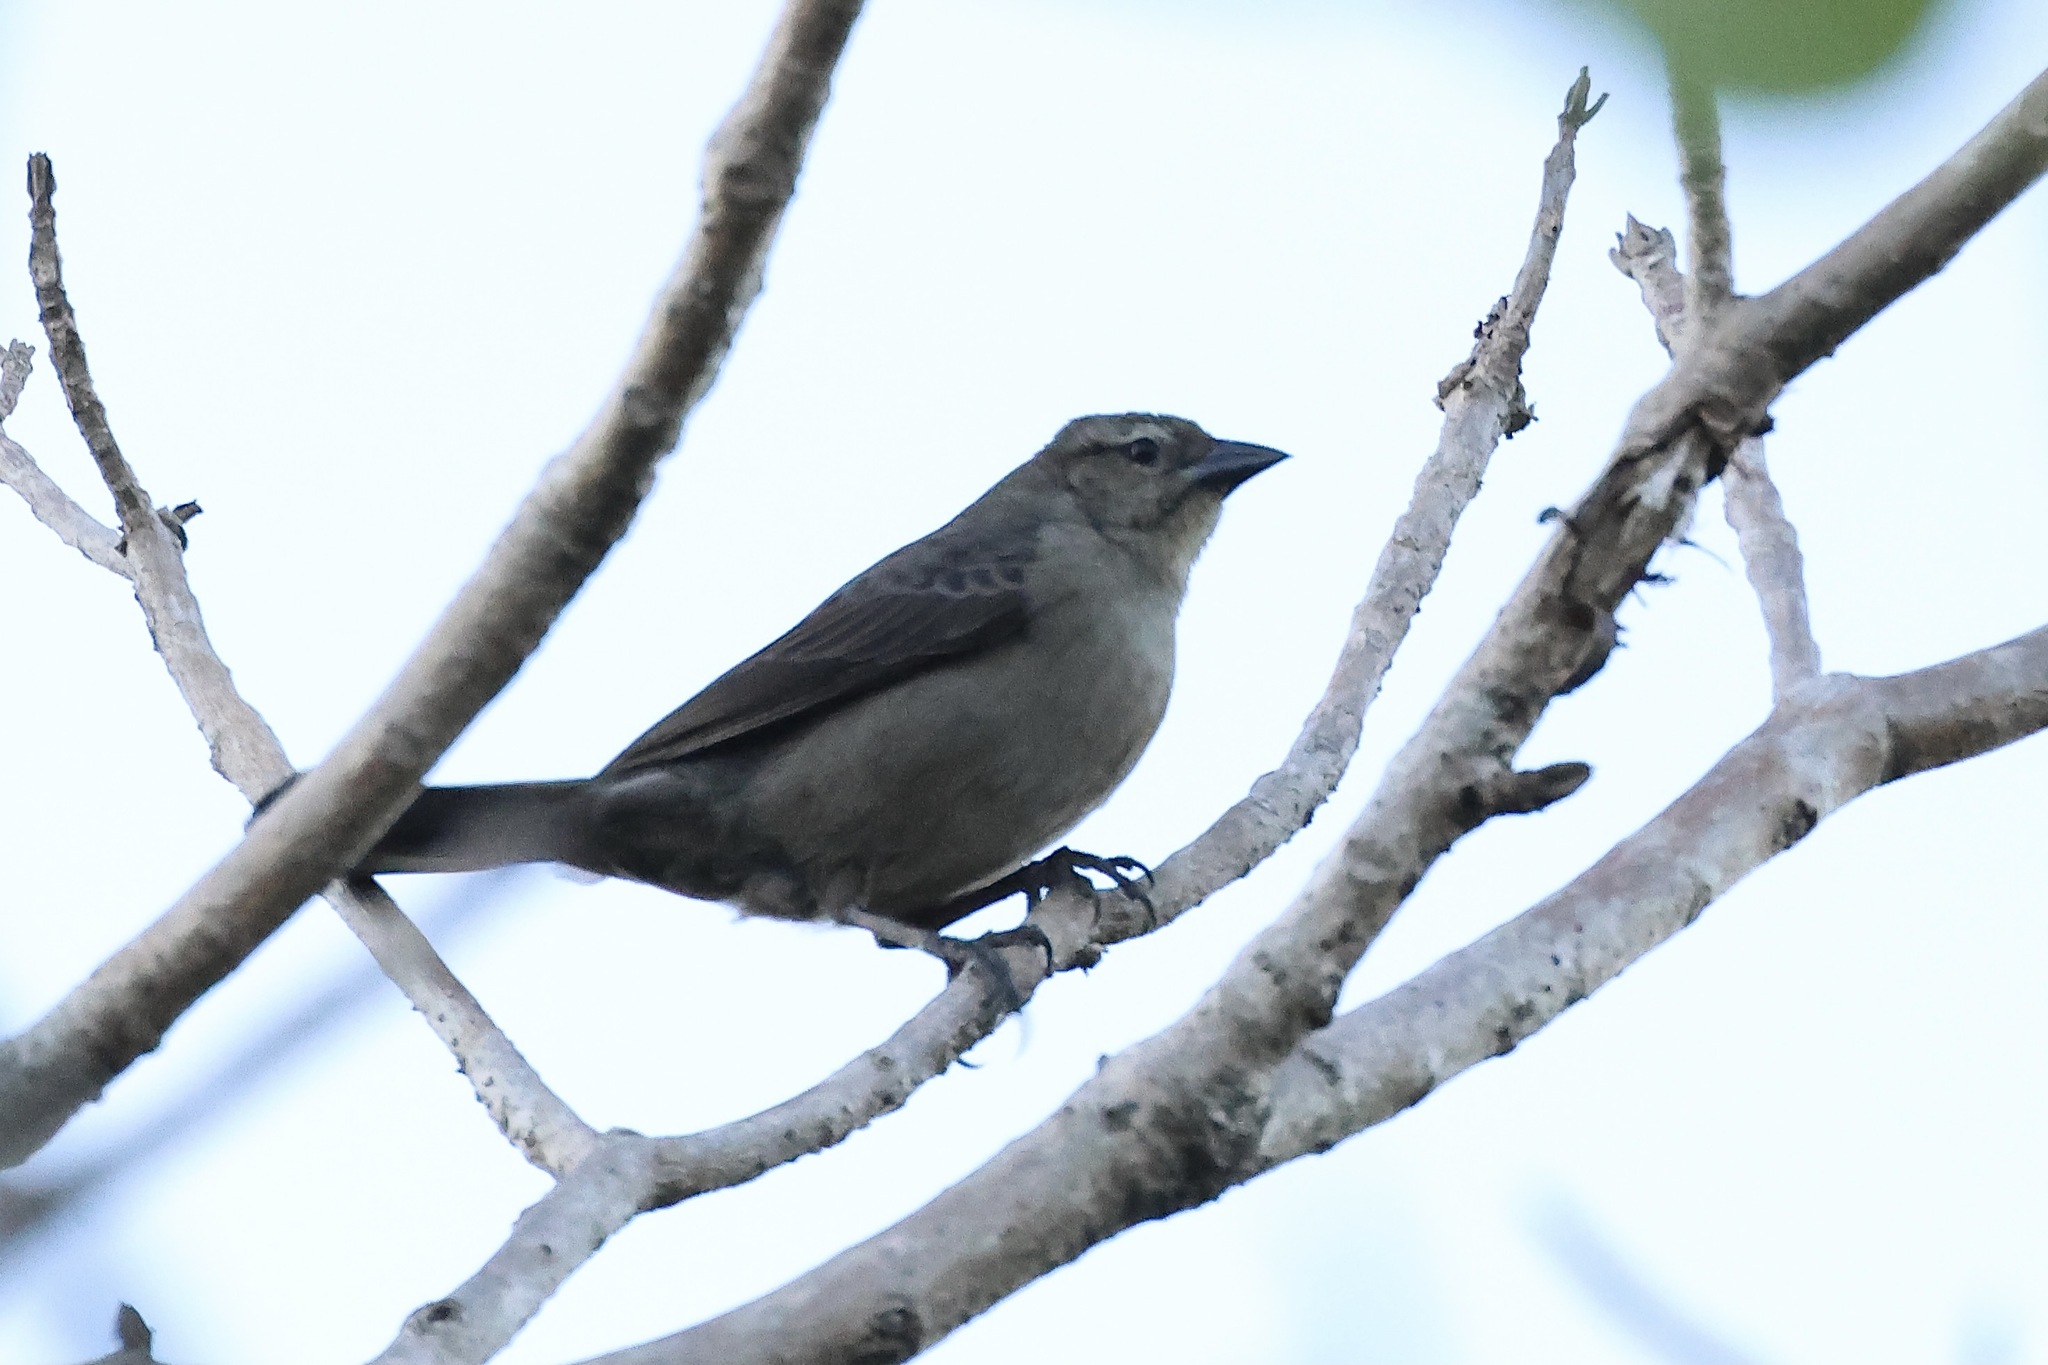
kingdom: Animalia
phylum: Chordata
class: Aves
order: Passeriformes
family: Icteridae
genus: Molothrus
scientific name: Molothrus bonariensis
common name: Shiny cowbird
